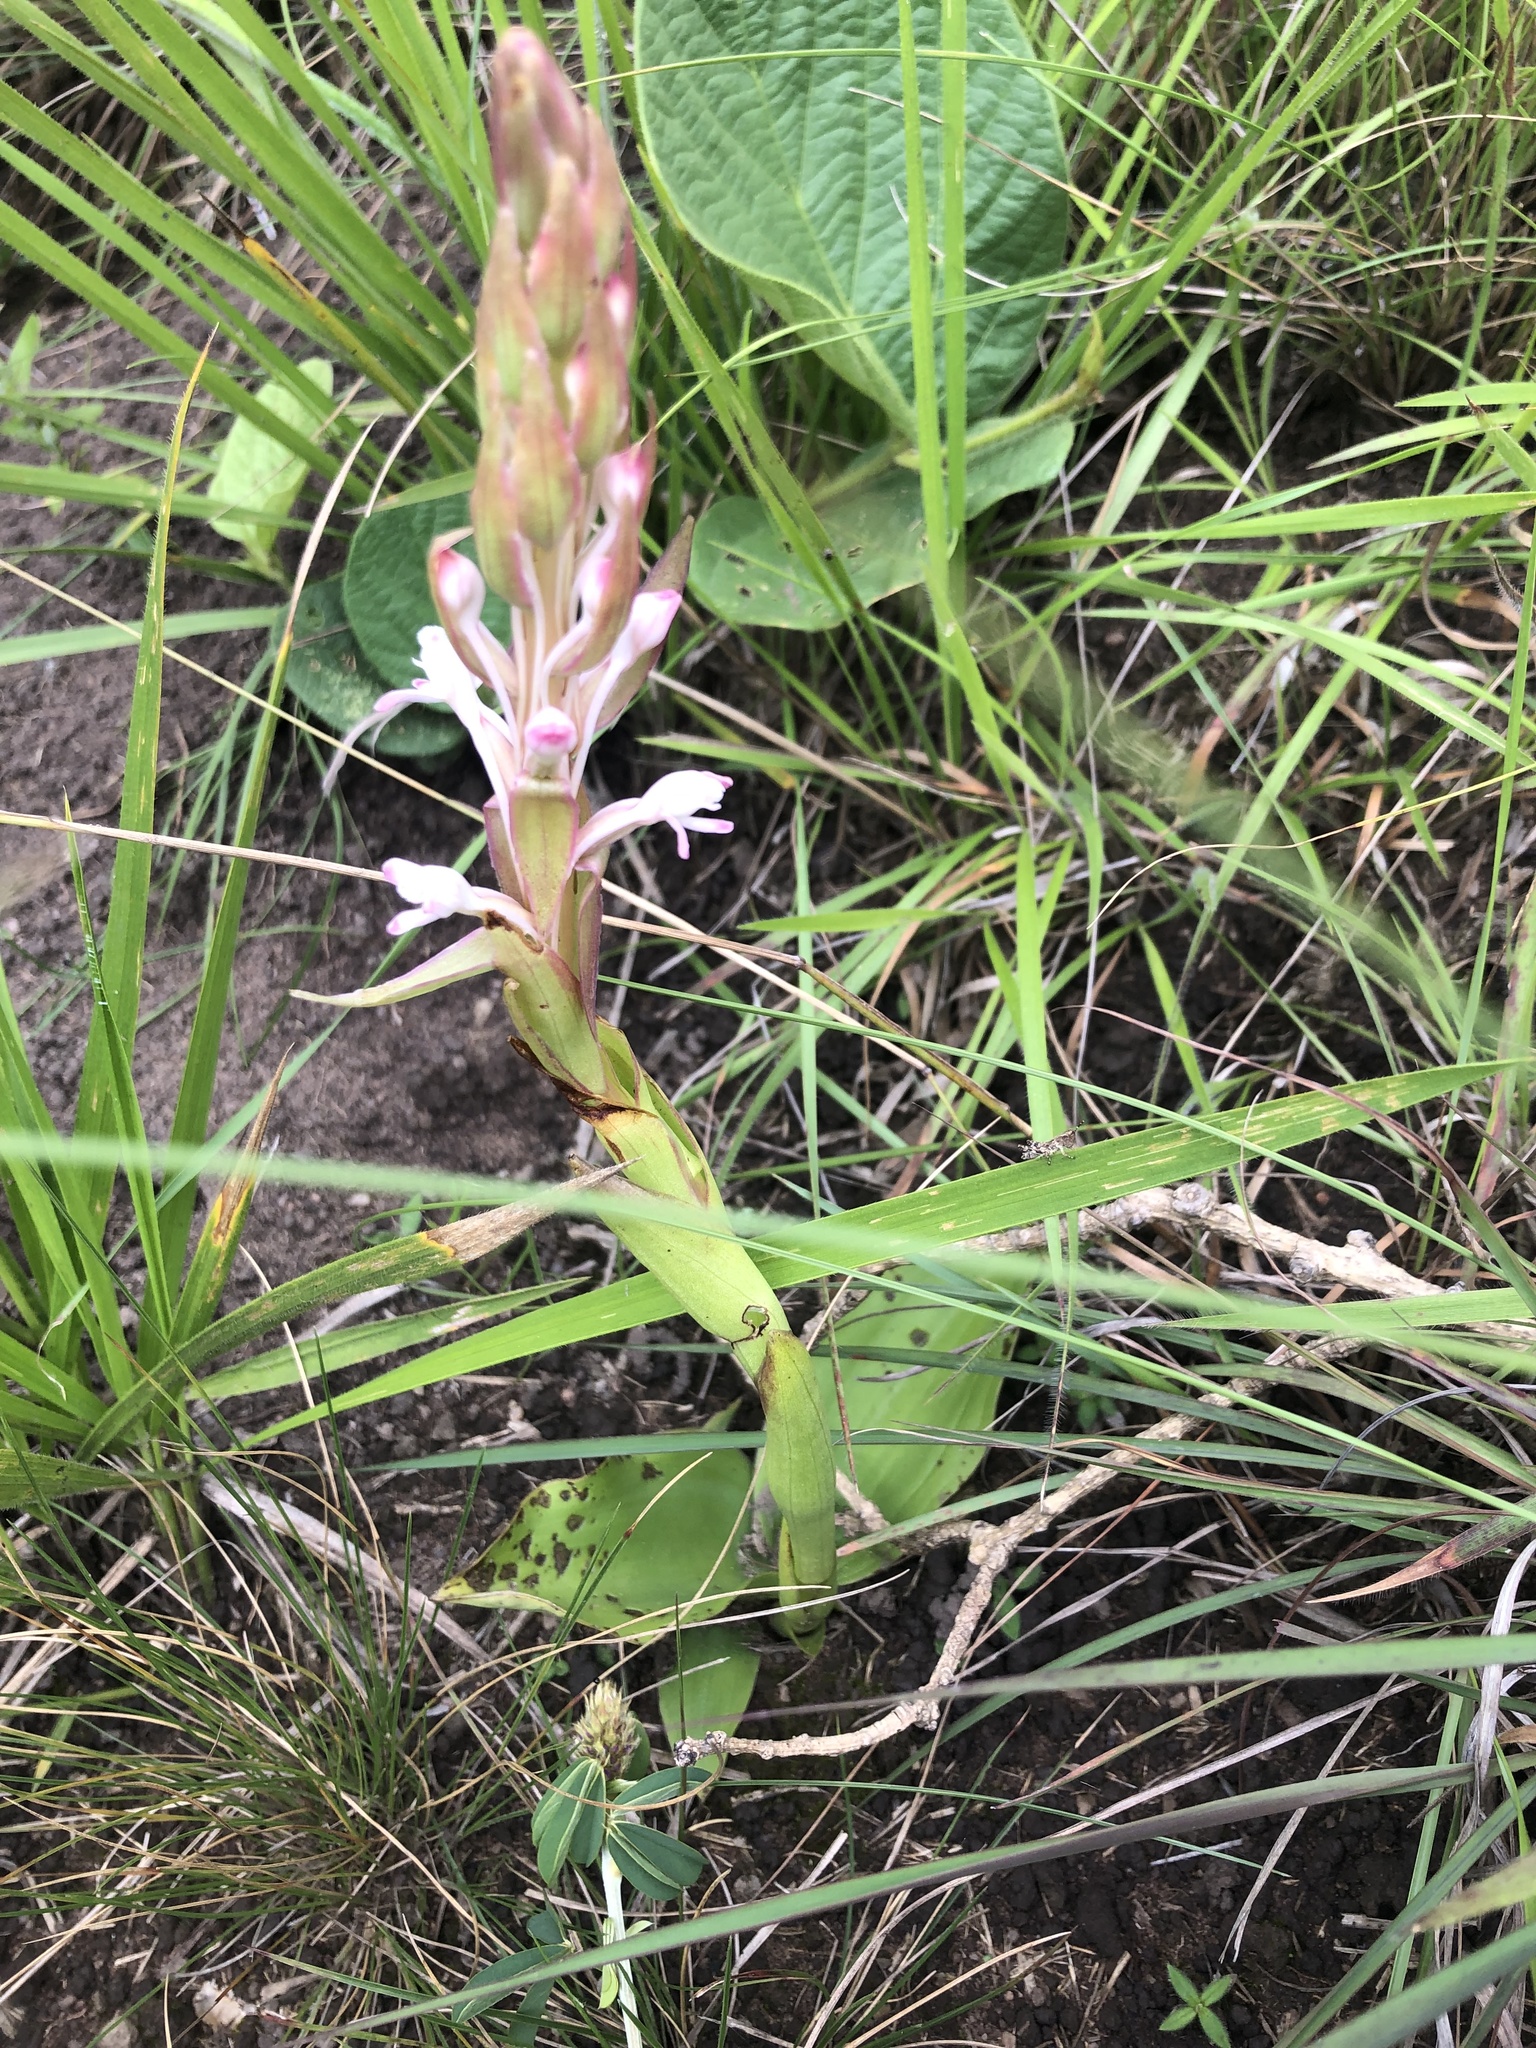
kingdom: Plantae
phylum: Tracheophyta
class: Liliopsida
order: Asparagales
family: Orchidaceae
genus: Satyrium
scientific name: Satyrium longicauda
